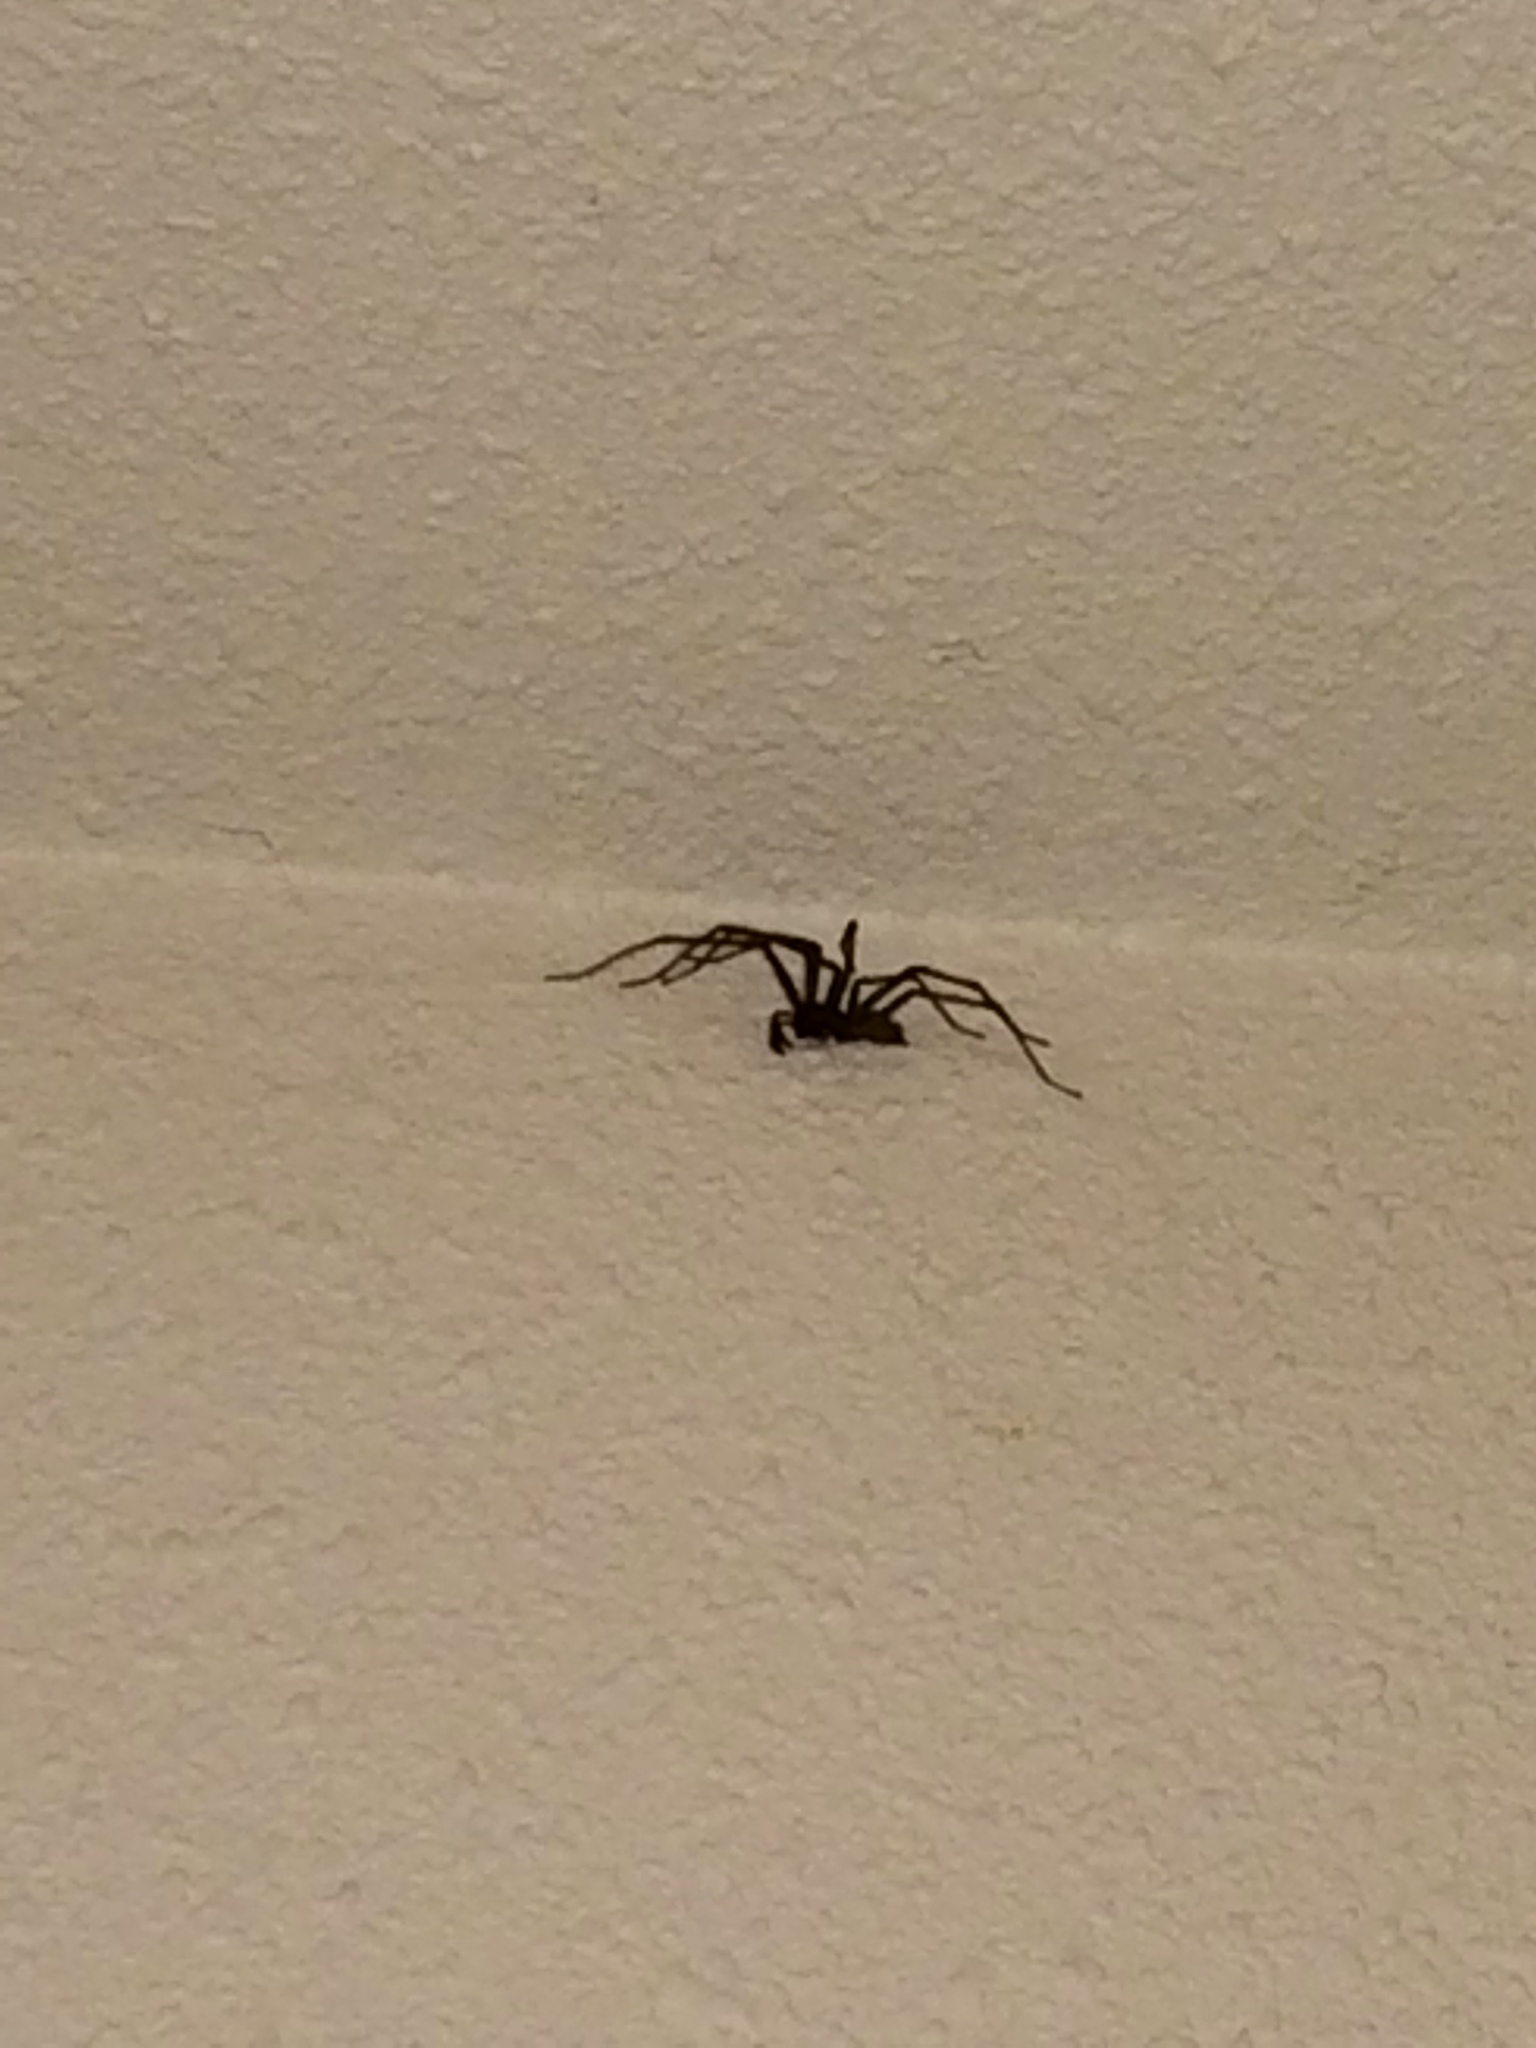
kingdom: Animalia
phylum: Arthropoda
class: Arachnida
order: Araneae
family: Agelenidae
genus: Eratigena
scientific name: Eratigena duellica
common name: Giant house spider
